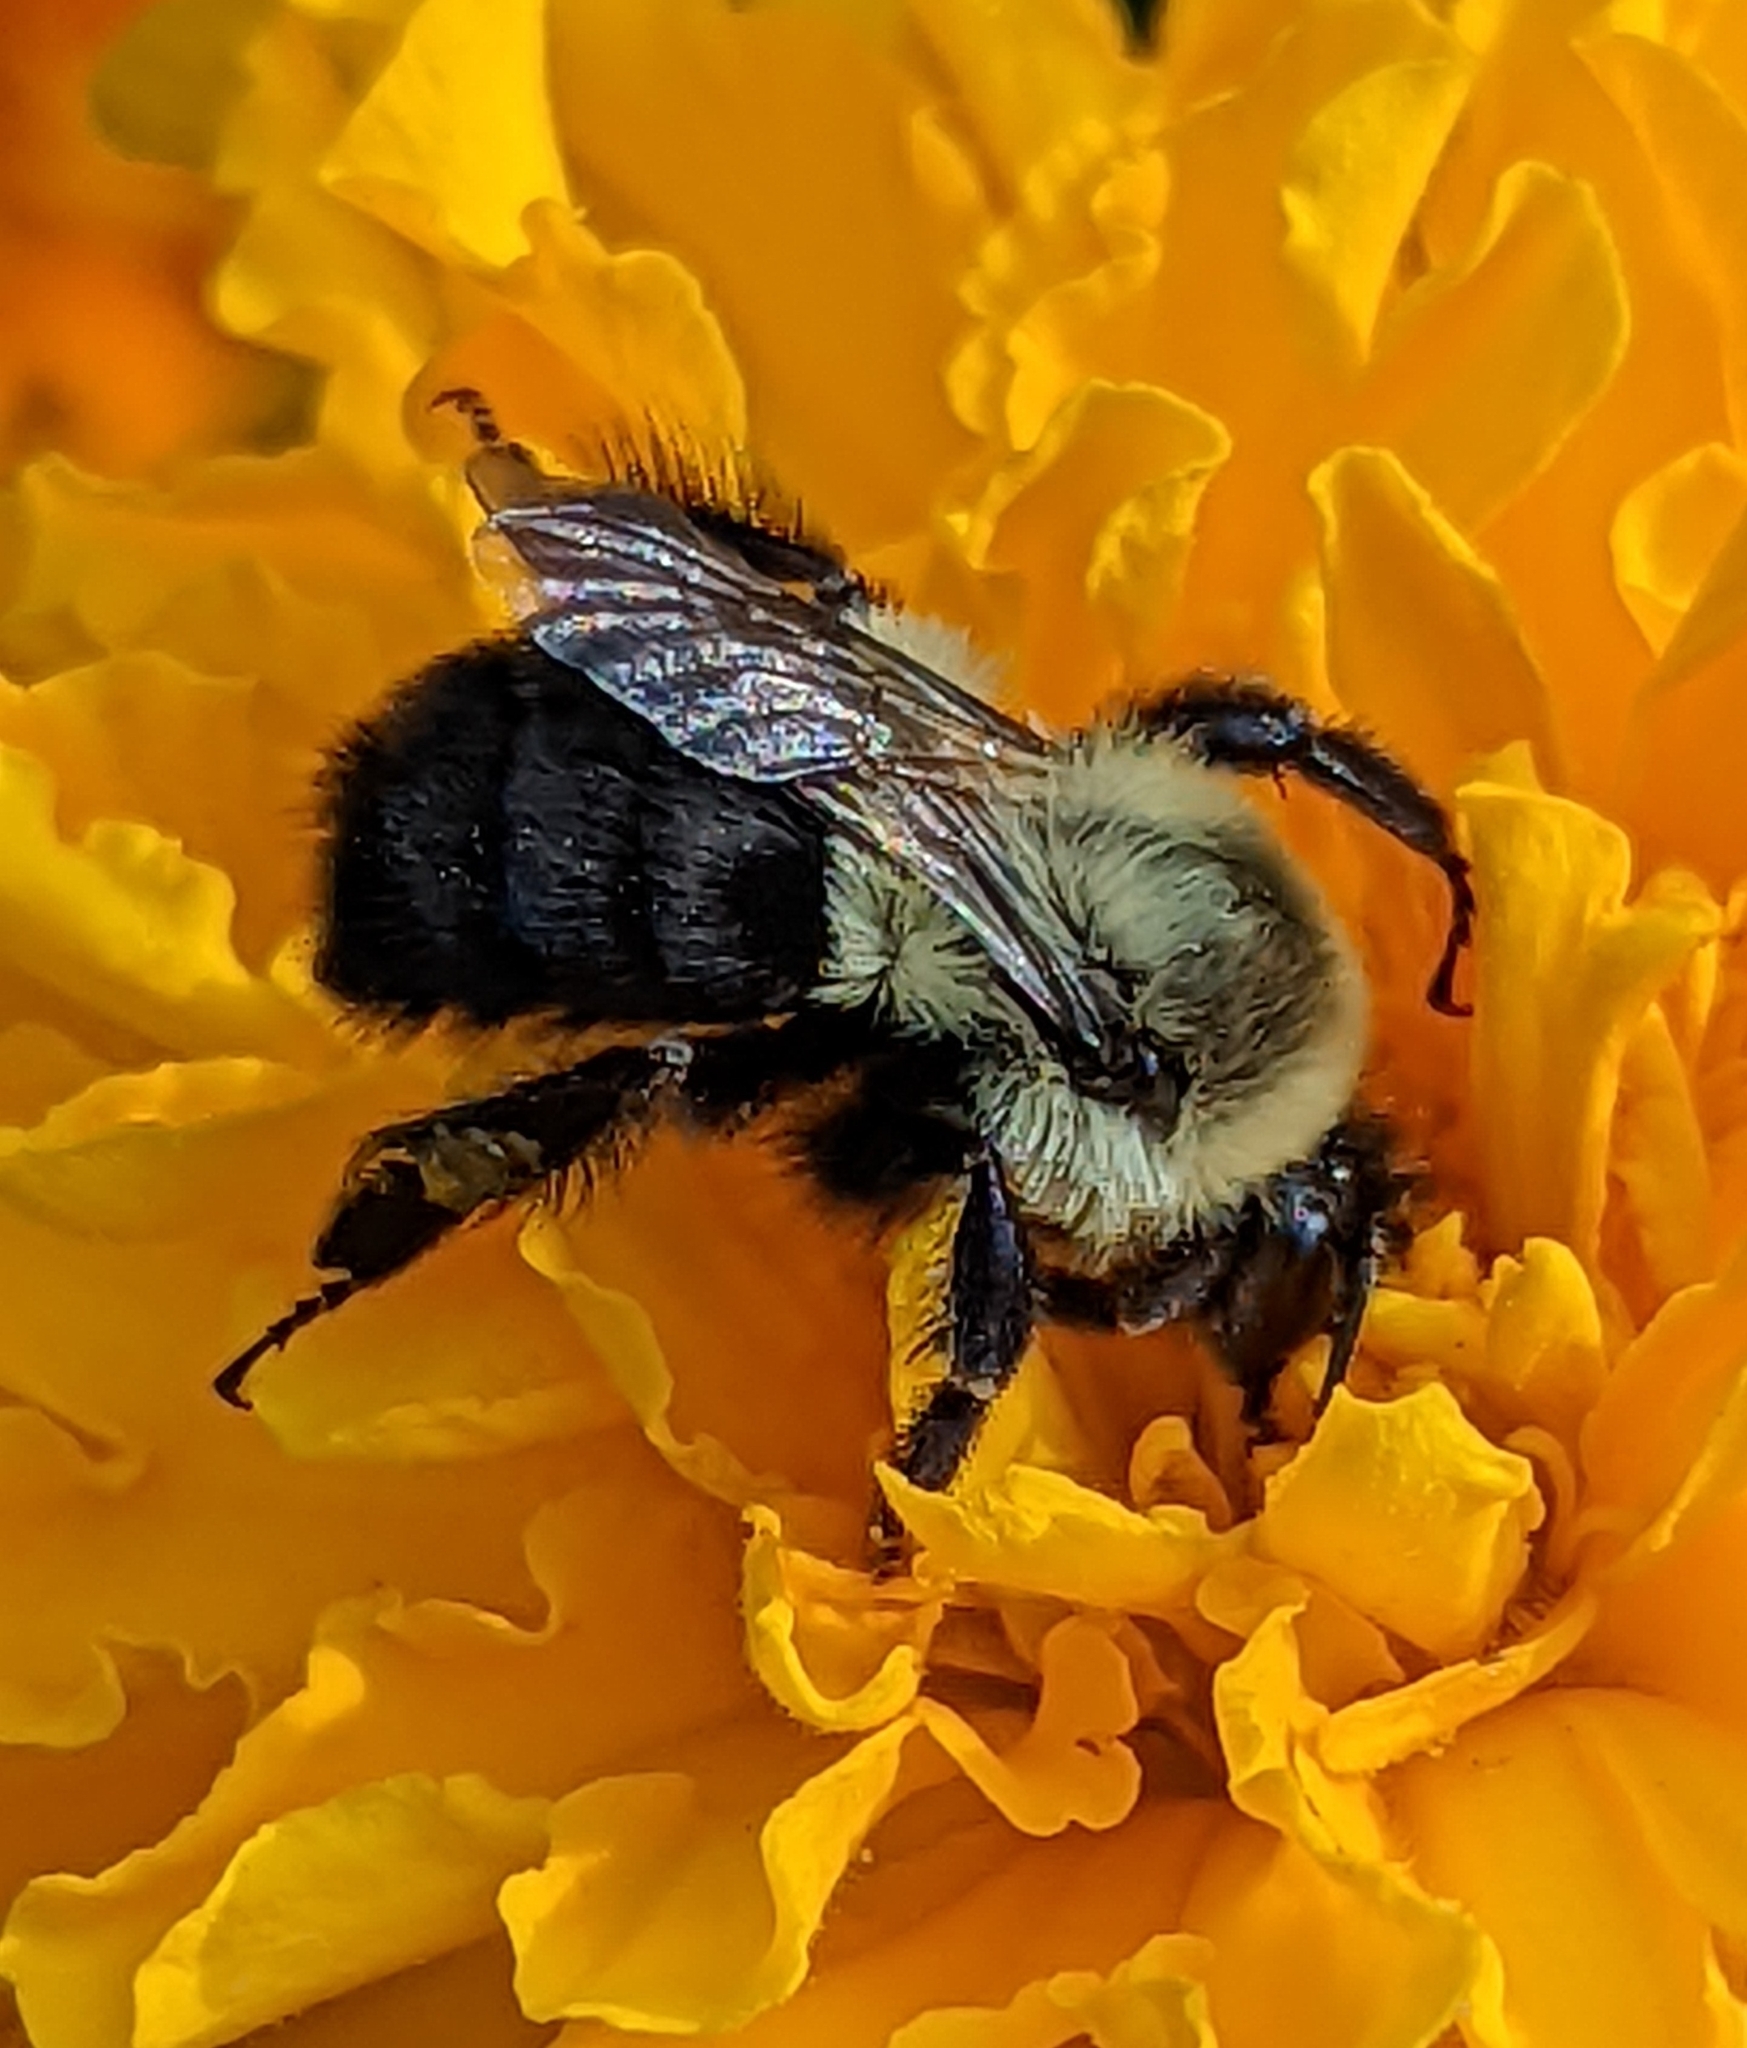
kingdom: Animalia
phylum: Arthropoda
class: Insecta
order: Hymenoptera
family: Apidae
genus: Bombus
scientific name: Bombus impatiens
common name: Common eastern bumble bee
